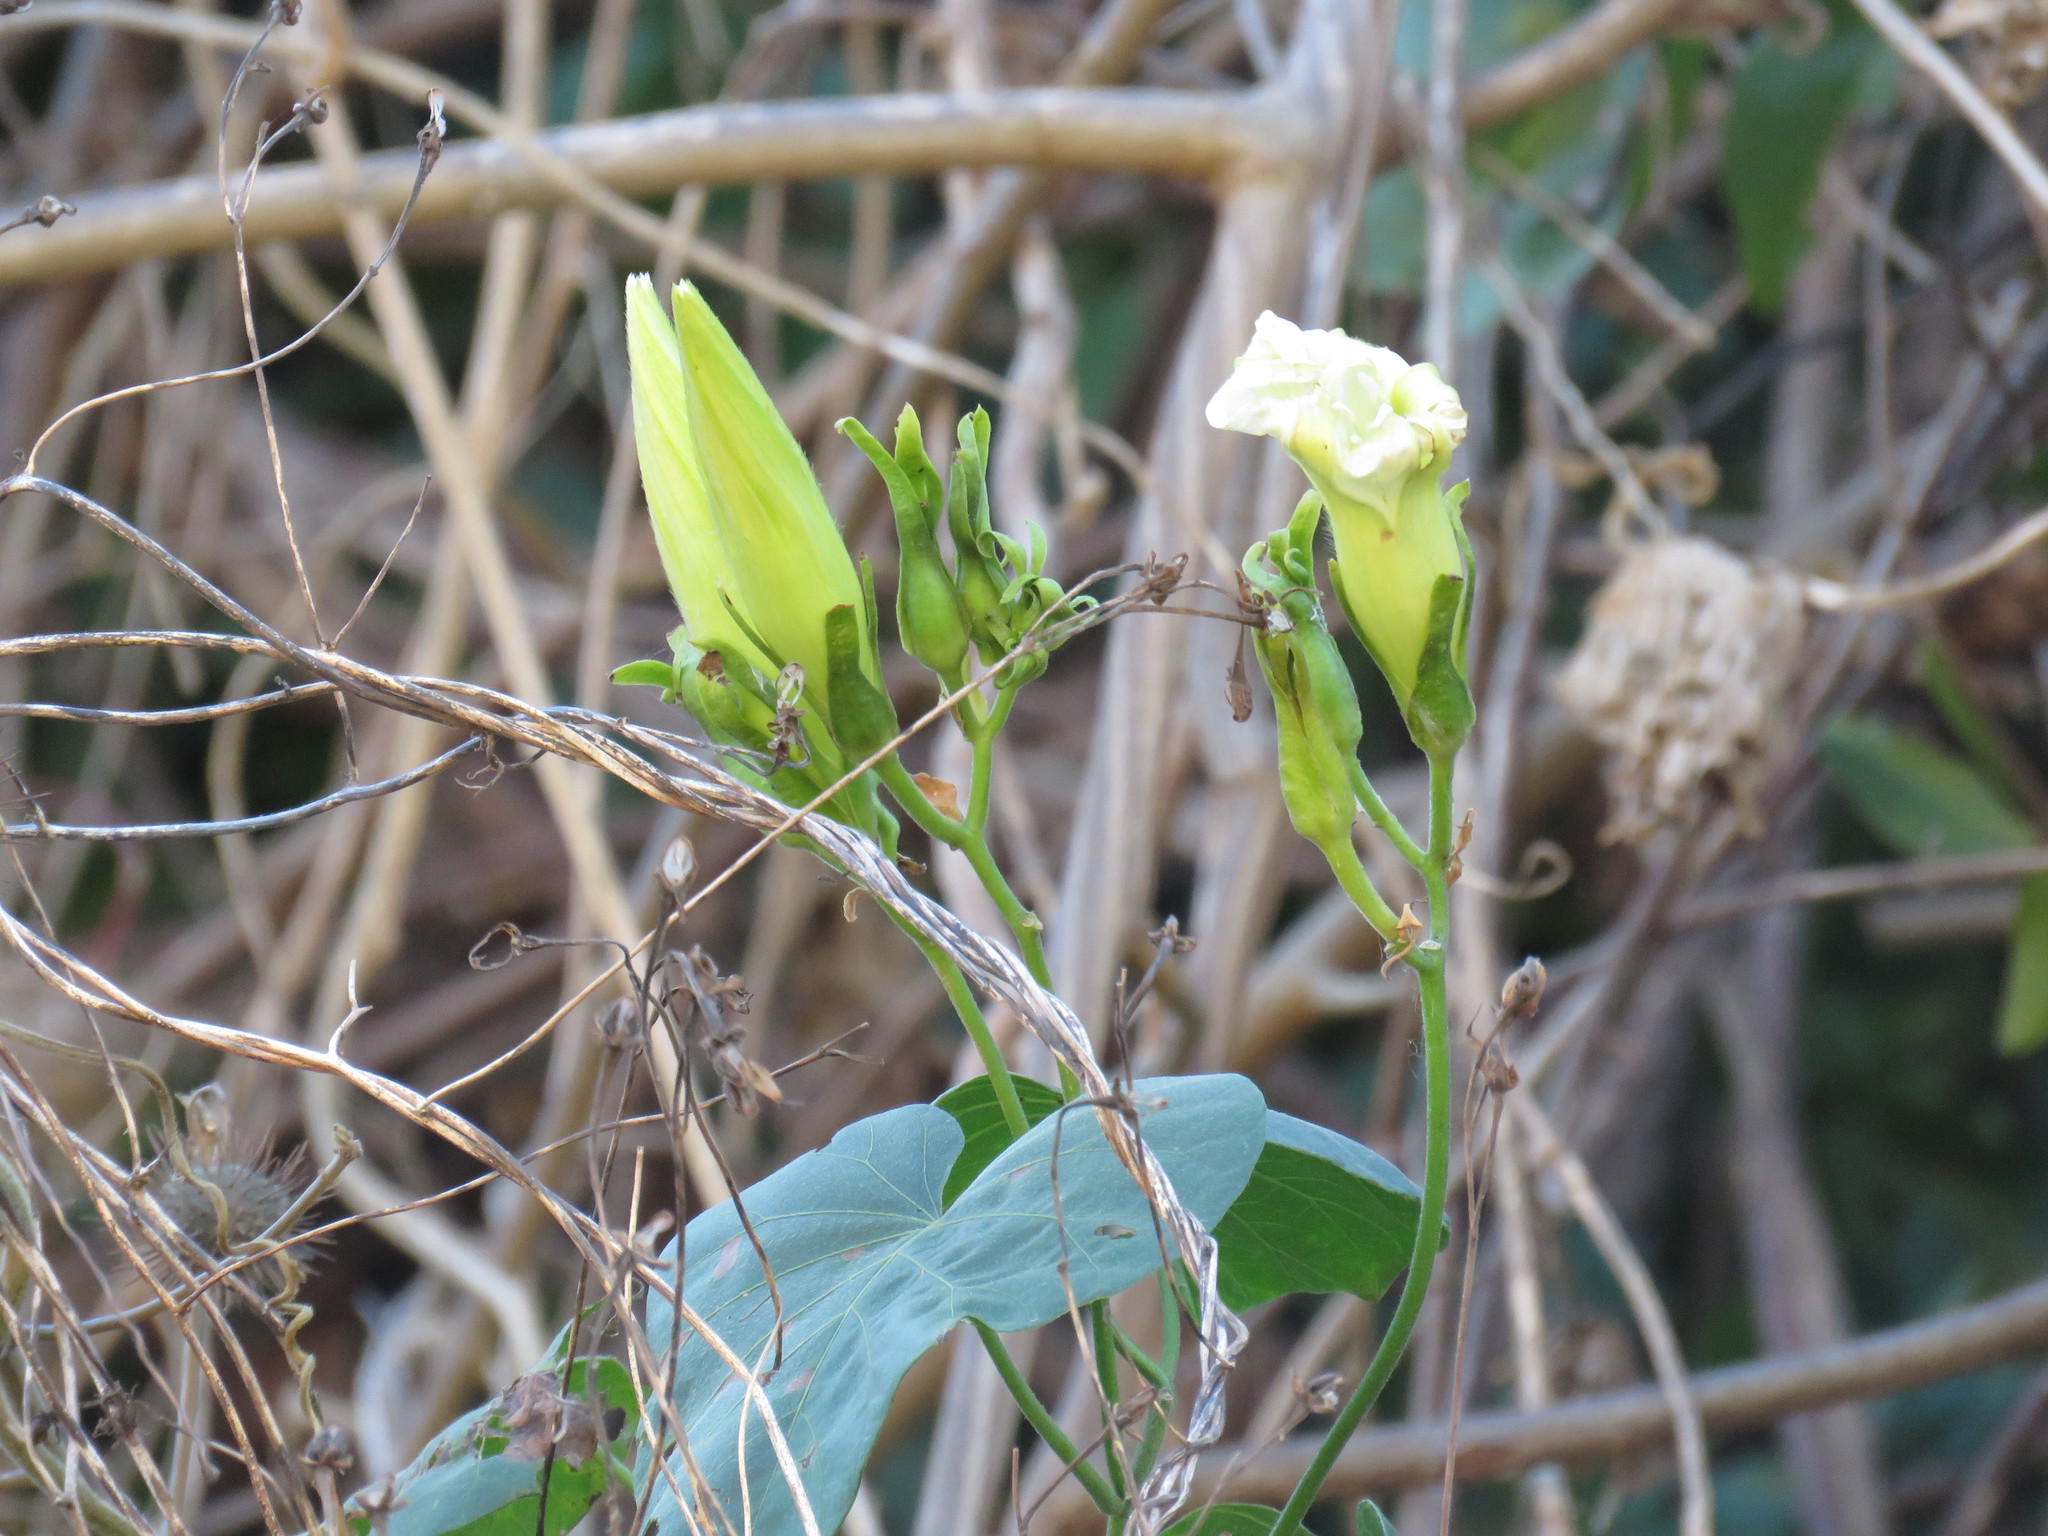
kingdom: Plantae
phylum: Tracheophyta
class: Magnoliopsida
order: Solanales
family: Convolvulaceae
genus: Ipomoea
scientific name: Ipomoea ampullacea
